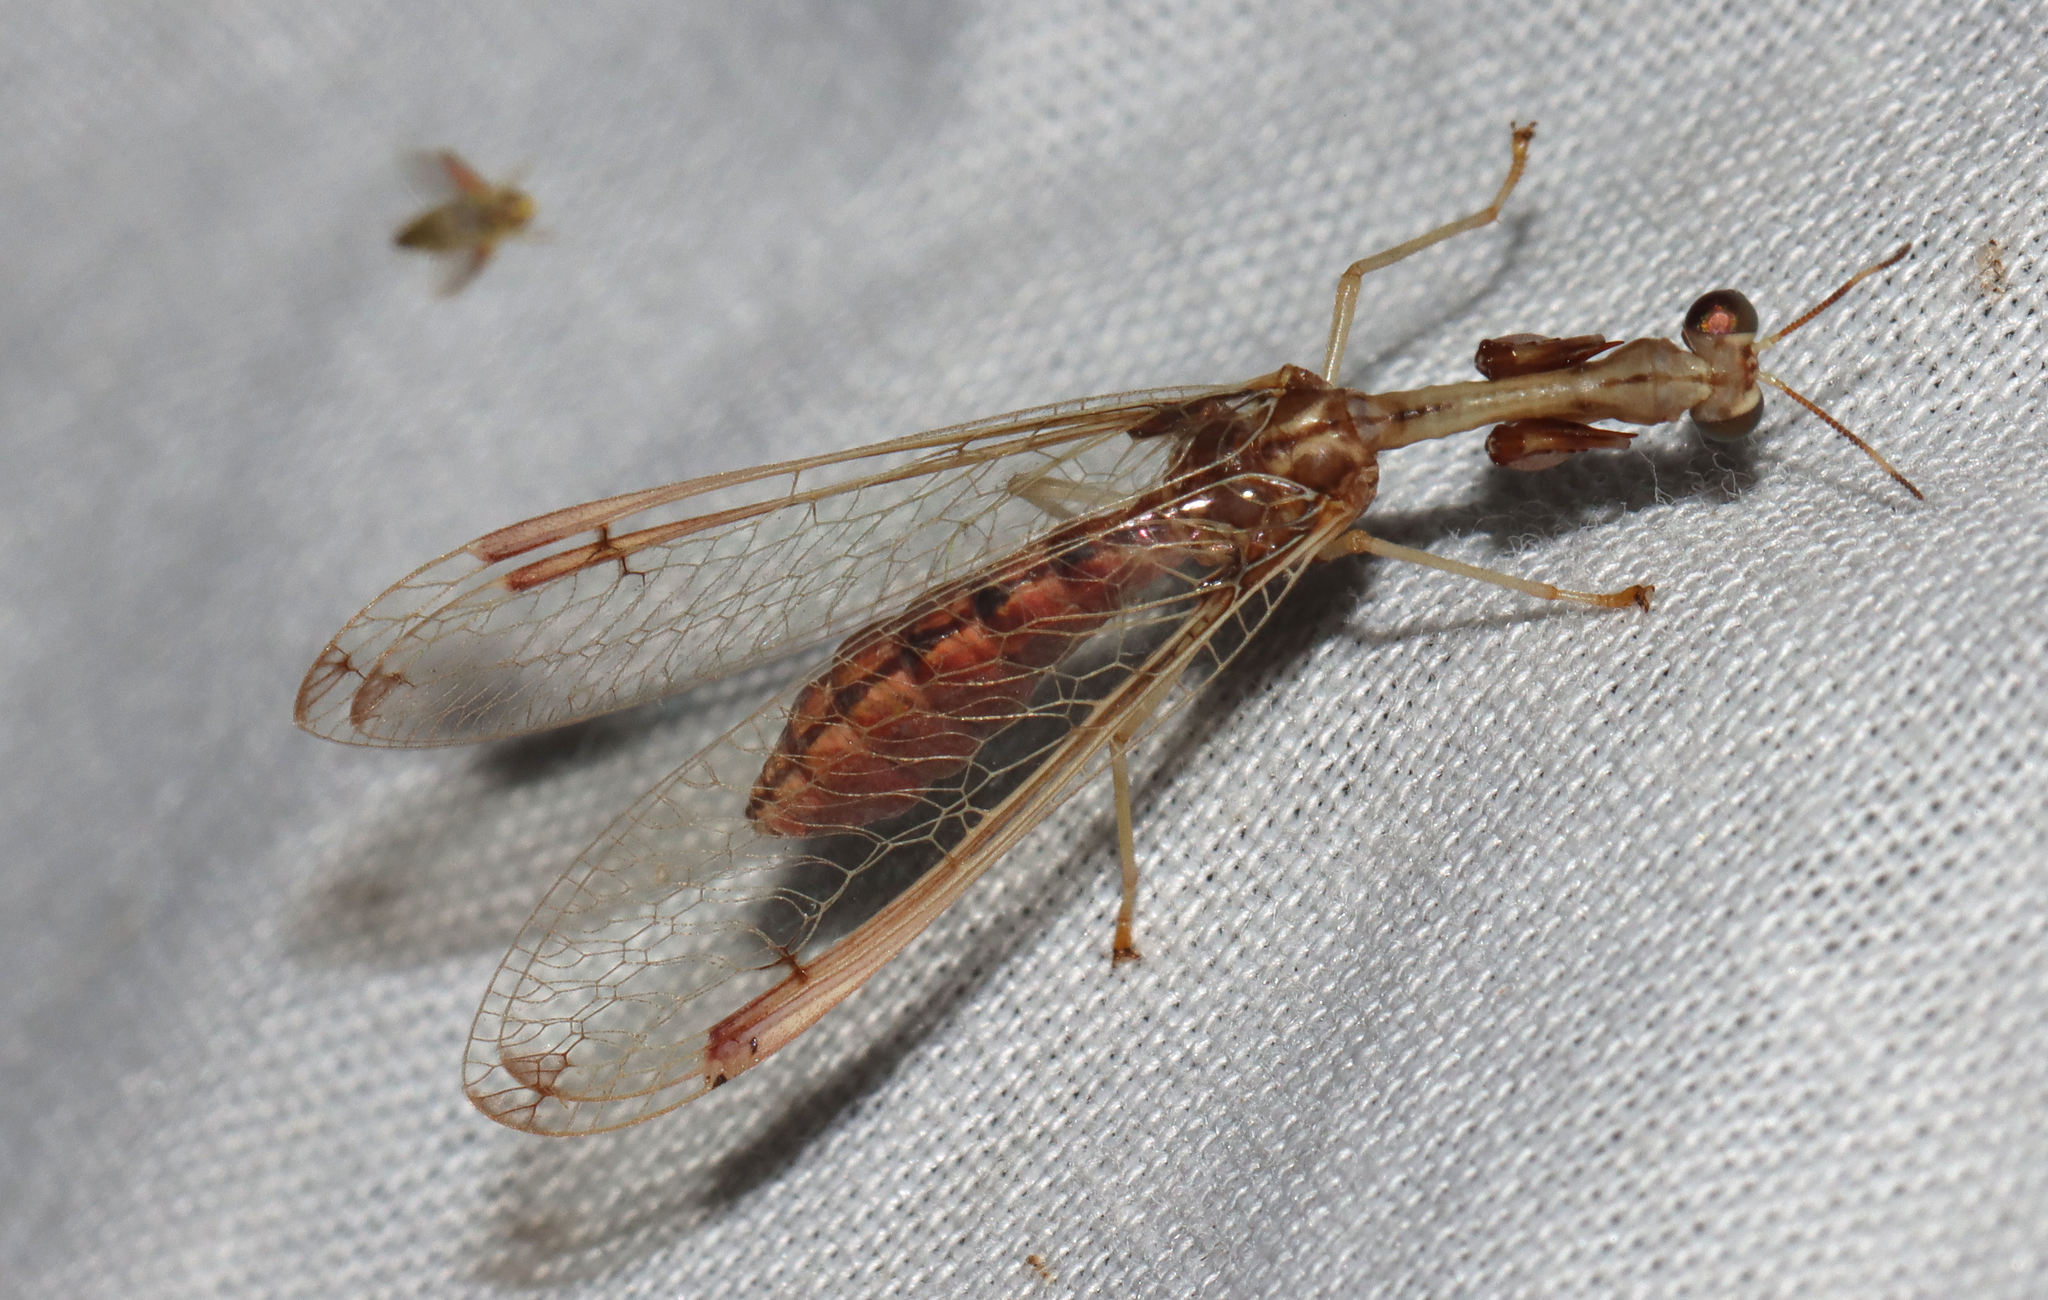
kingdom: Animalia
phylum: Arthropoda
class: Insecta
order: Neuroptera
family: Mantispidae
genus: Dicromantispa
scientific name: Dicromantispa interrupta
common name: Four-spotted mantidfly
